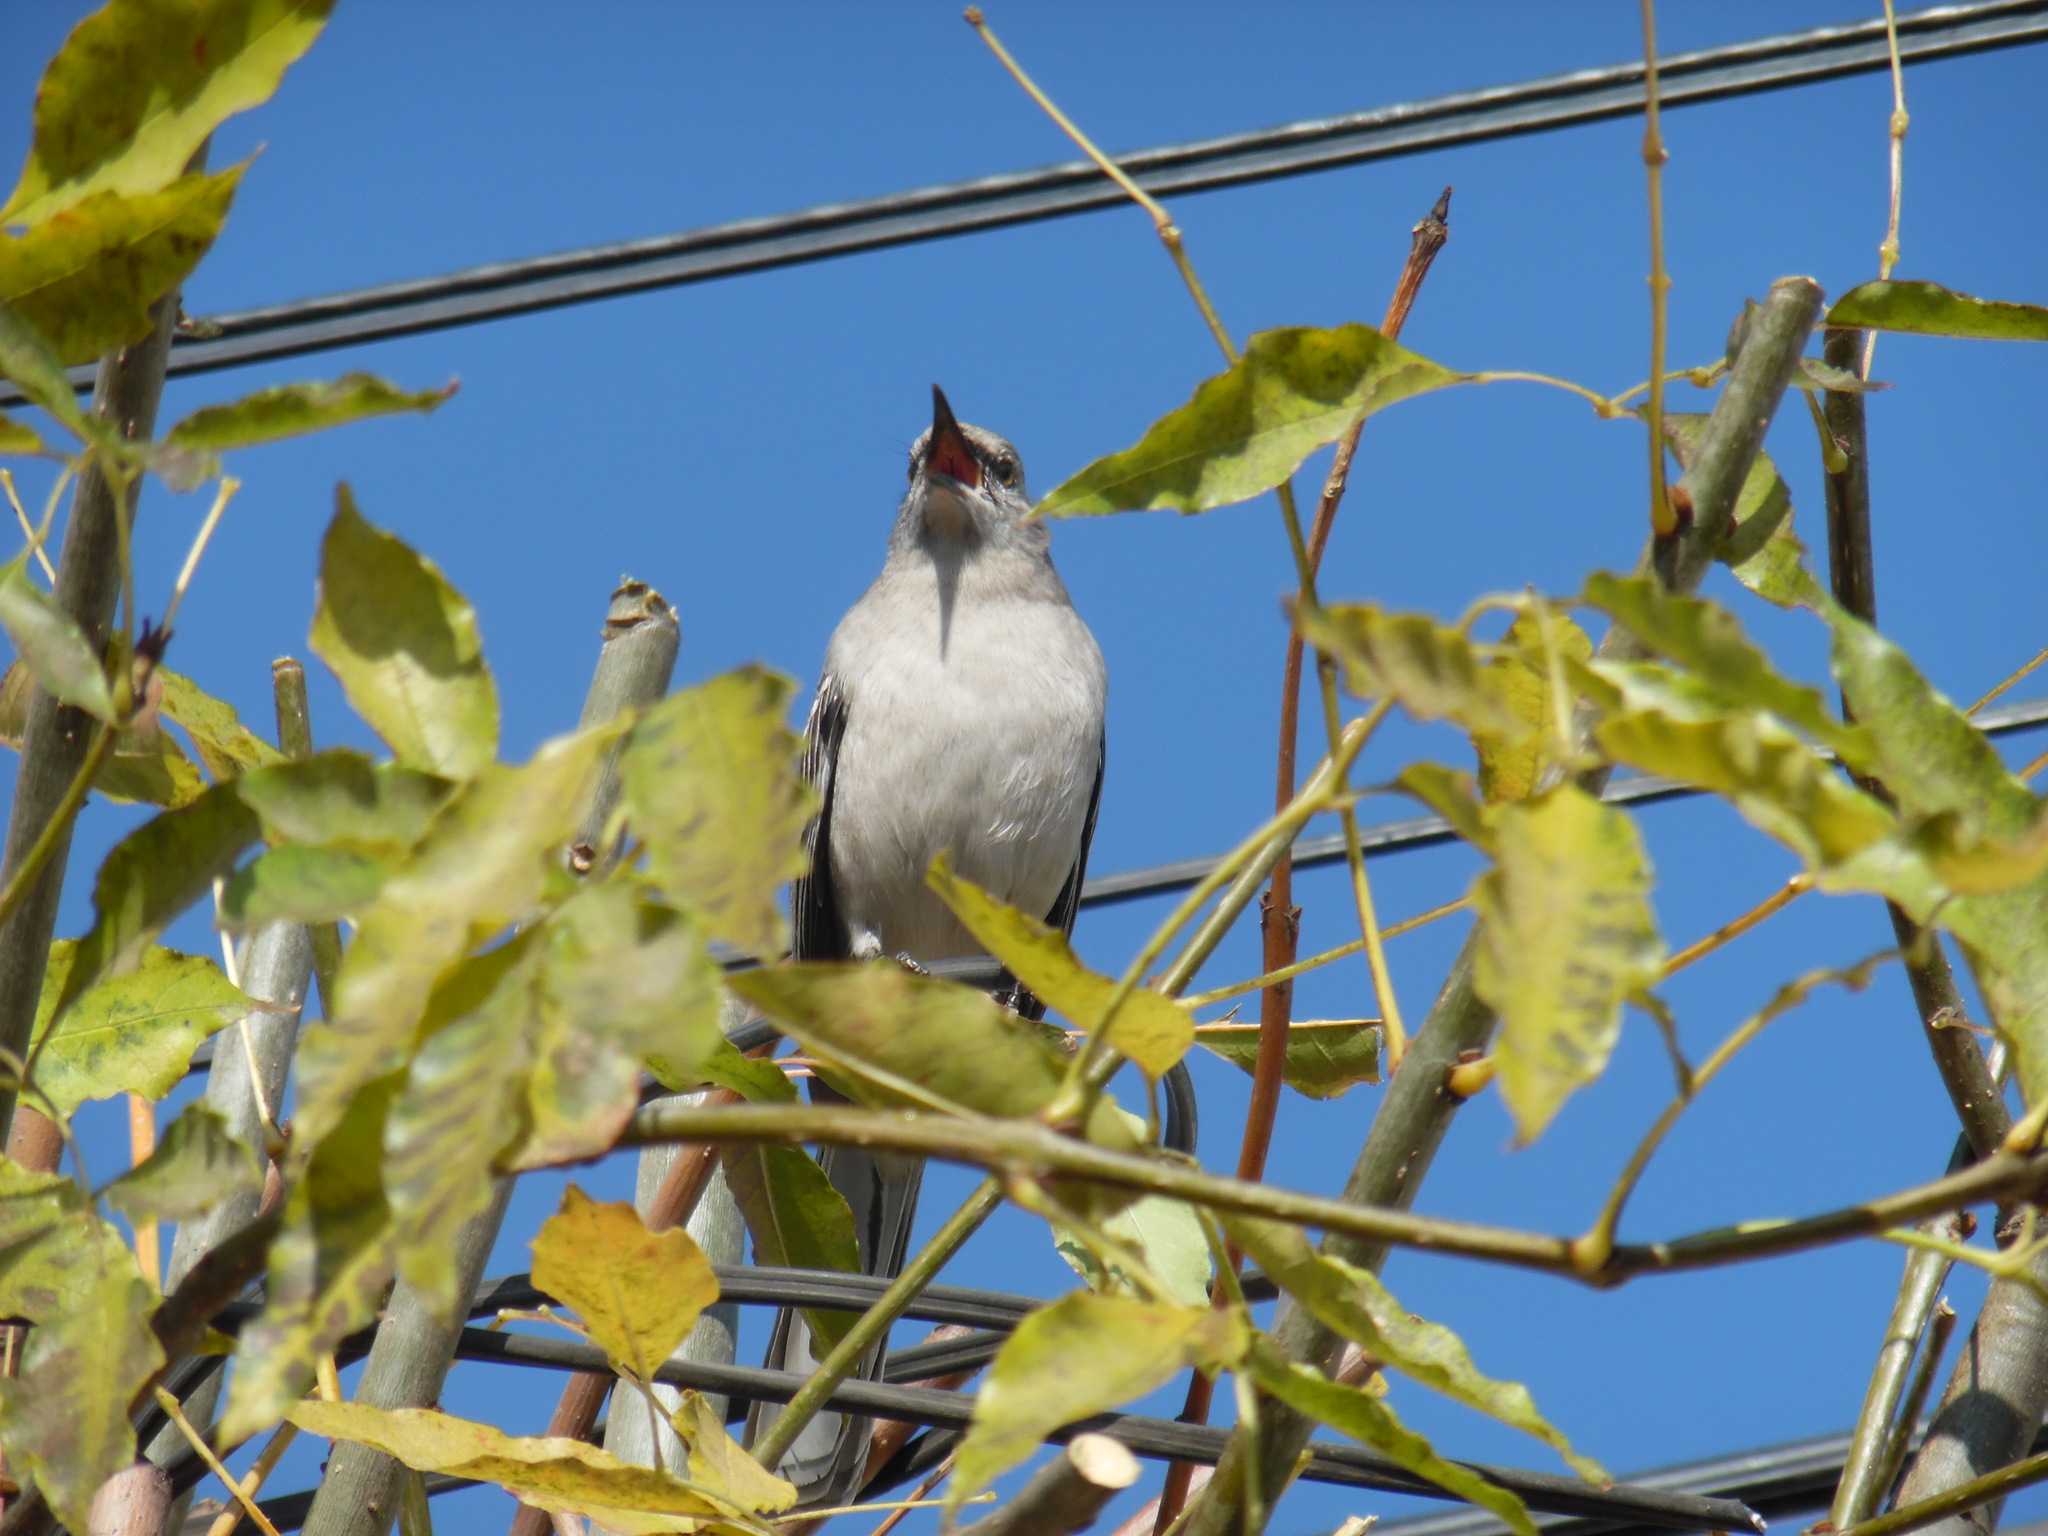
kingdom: Animalia
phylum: Chordata
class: Aves
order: Passeriformes
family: Mimidae
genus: Mimus
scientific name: Mimus polyglottos
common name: Northern mockingbird
